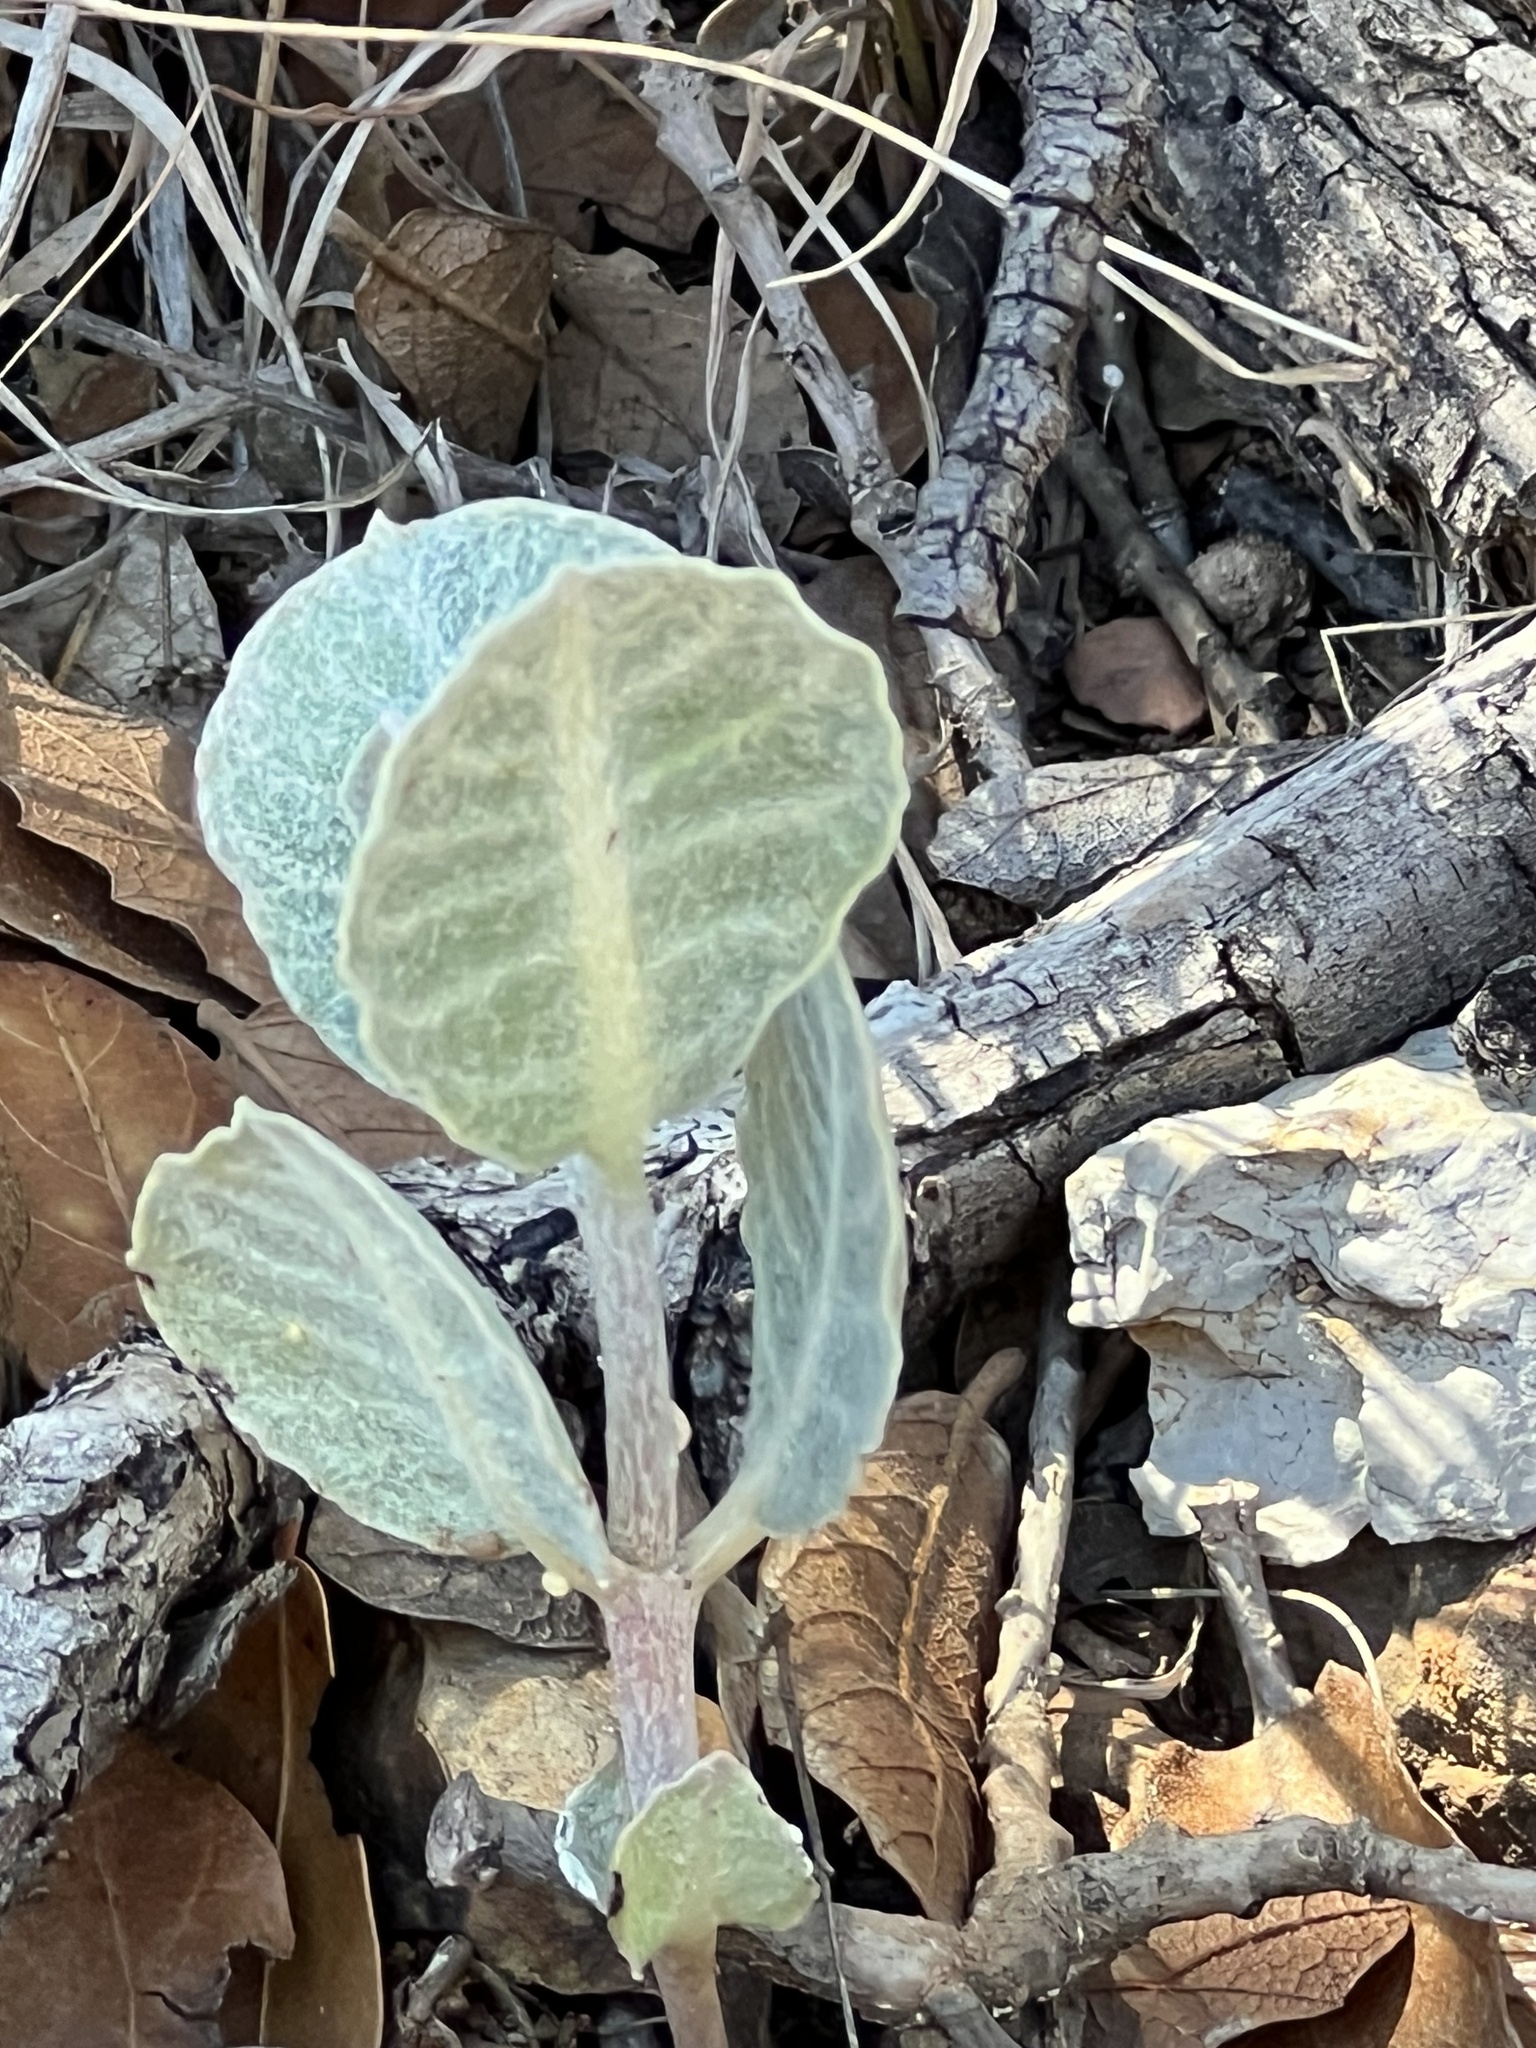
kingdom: Plantae
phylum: Tracheophyta
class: Magnoliopsida
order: Gentianales
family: Apocynaceae
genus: Asclepias
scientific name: Asclepias nummularia
